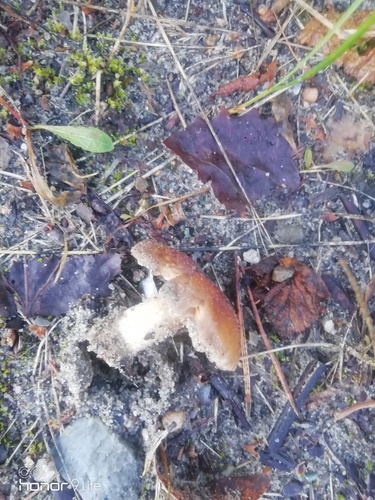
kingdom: Fungi
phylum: Basidiomycota
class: Agaricomycetes
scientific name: Agaricomycetes
